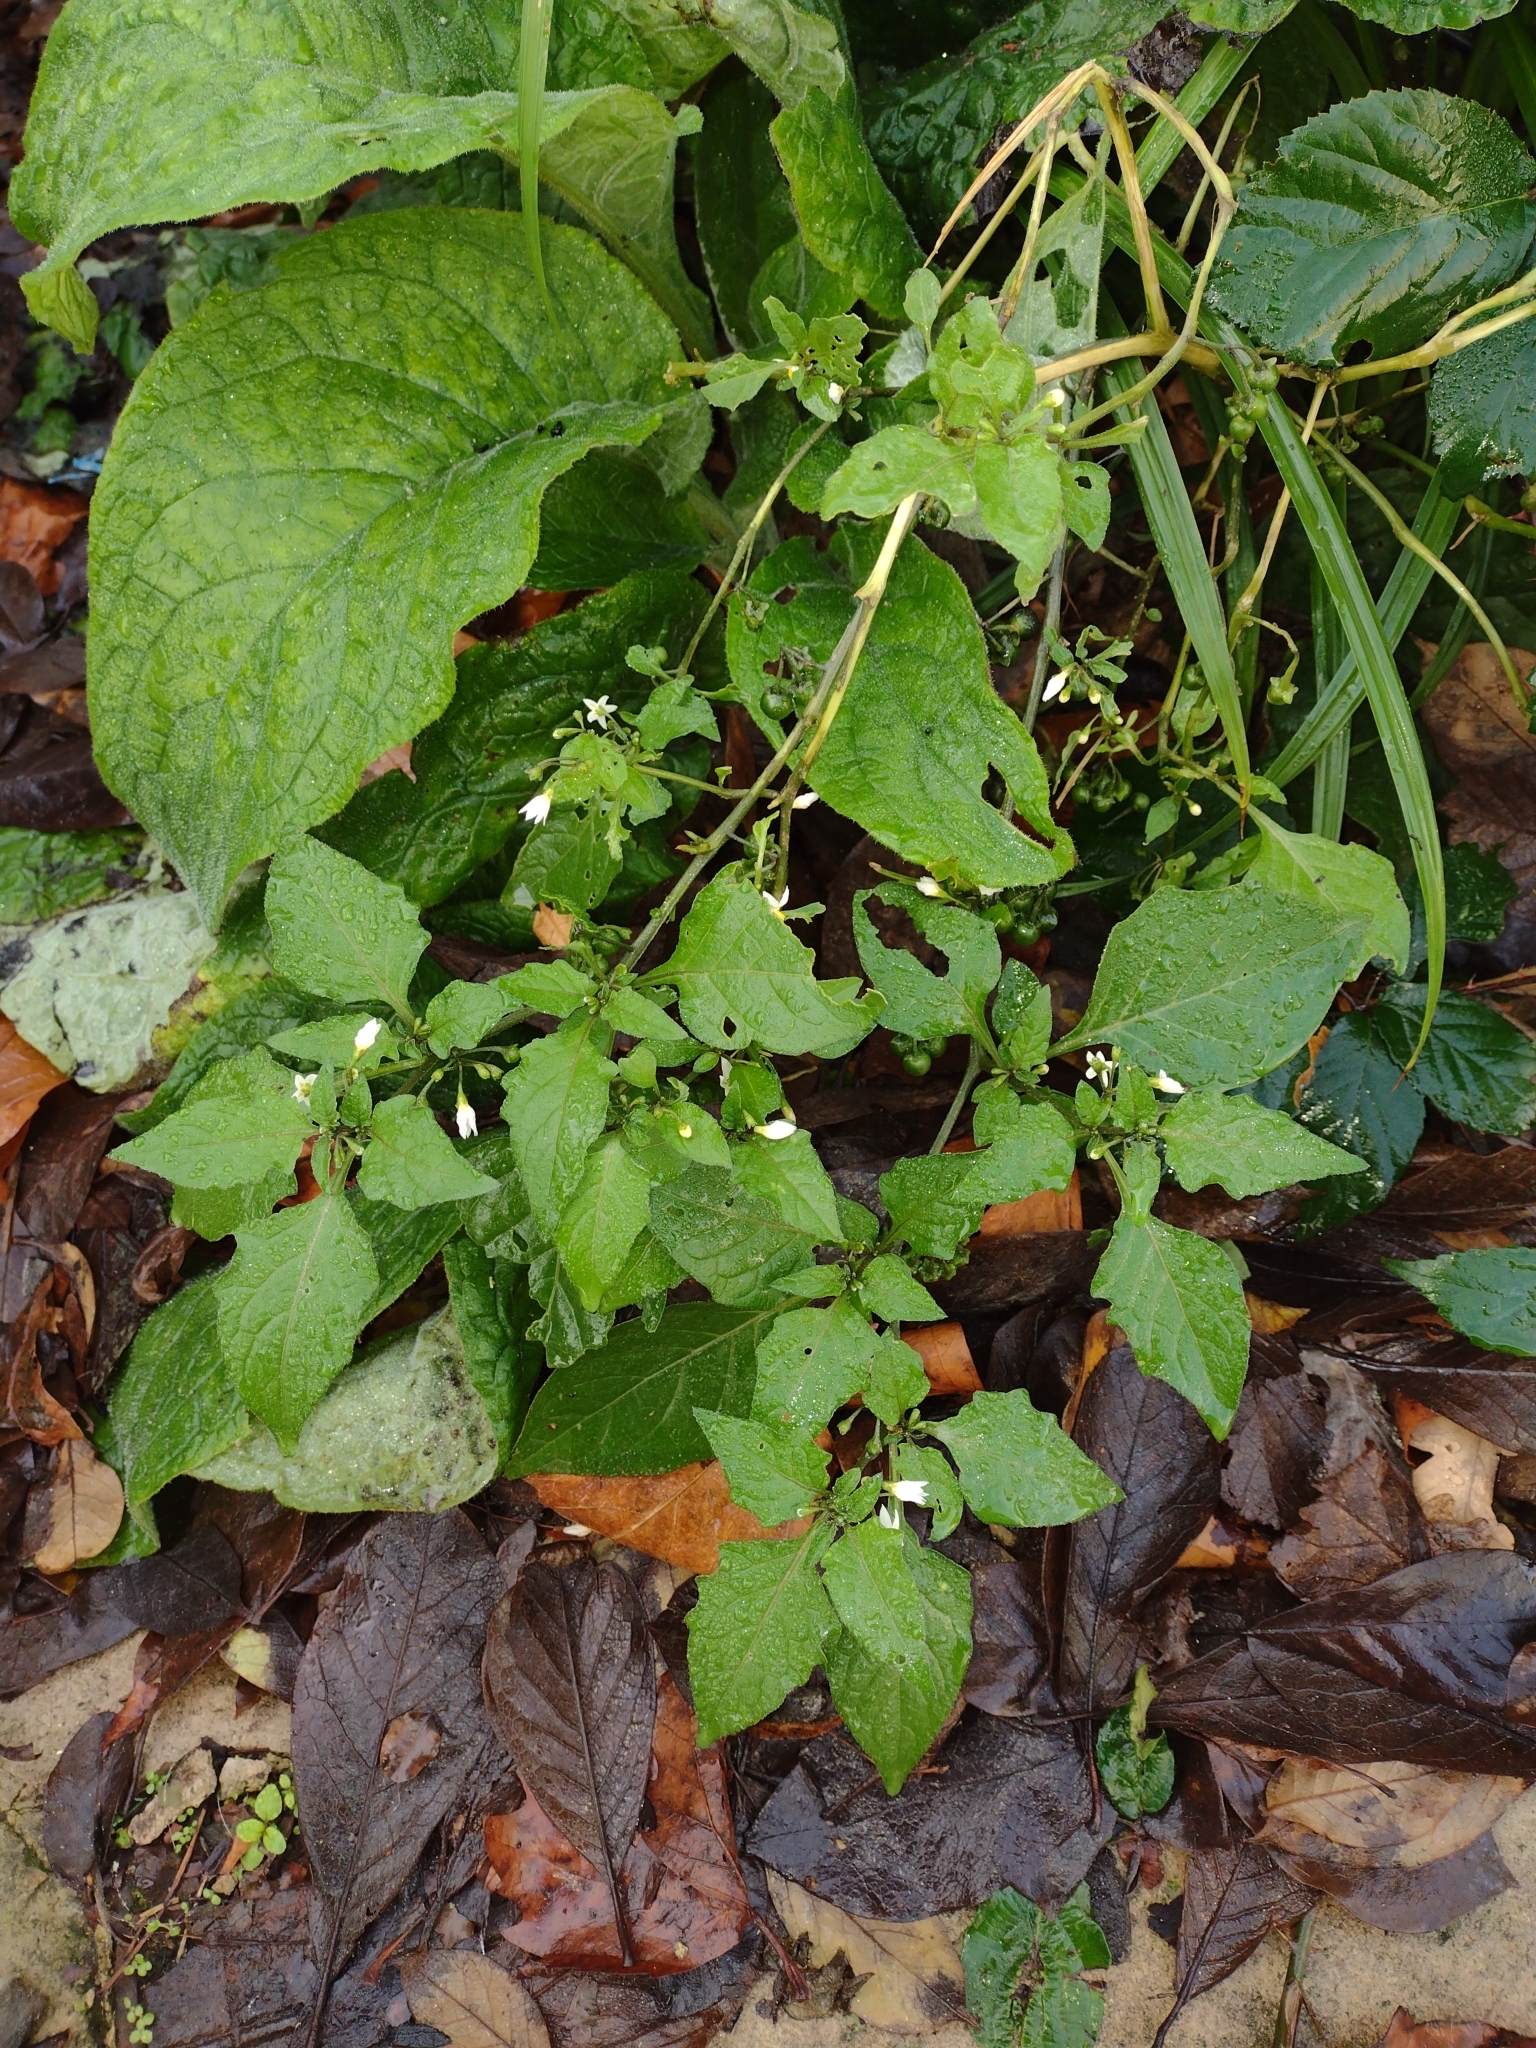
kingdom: Plantae
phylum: Tracheophyta
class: Magnoliopsida
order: Solanales
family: Solanaceae
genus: Solanum
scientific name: Solanum nigrum
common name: Black nightshade
